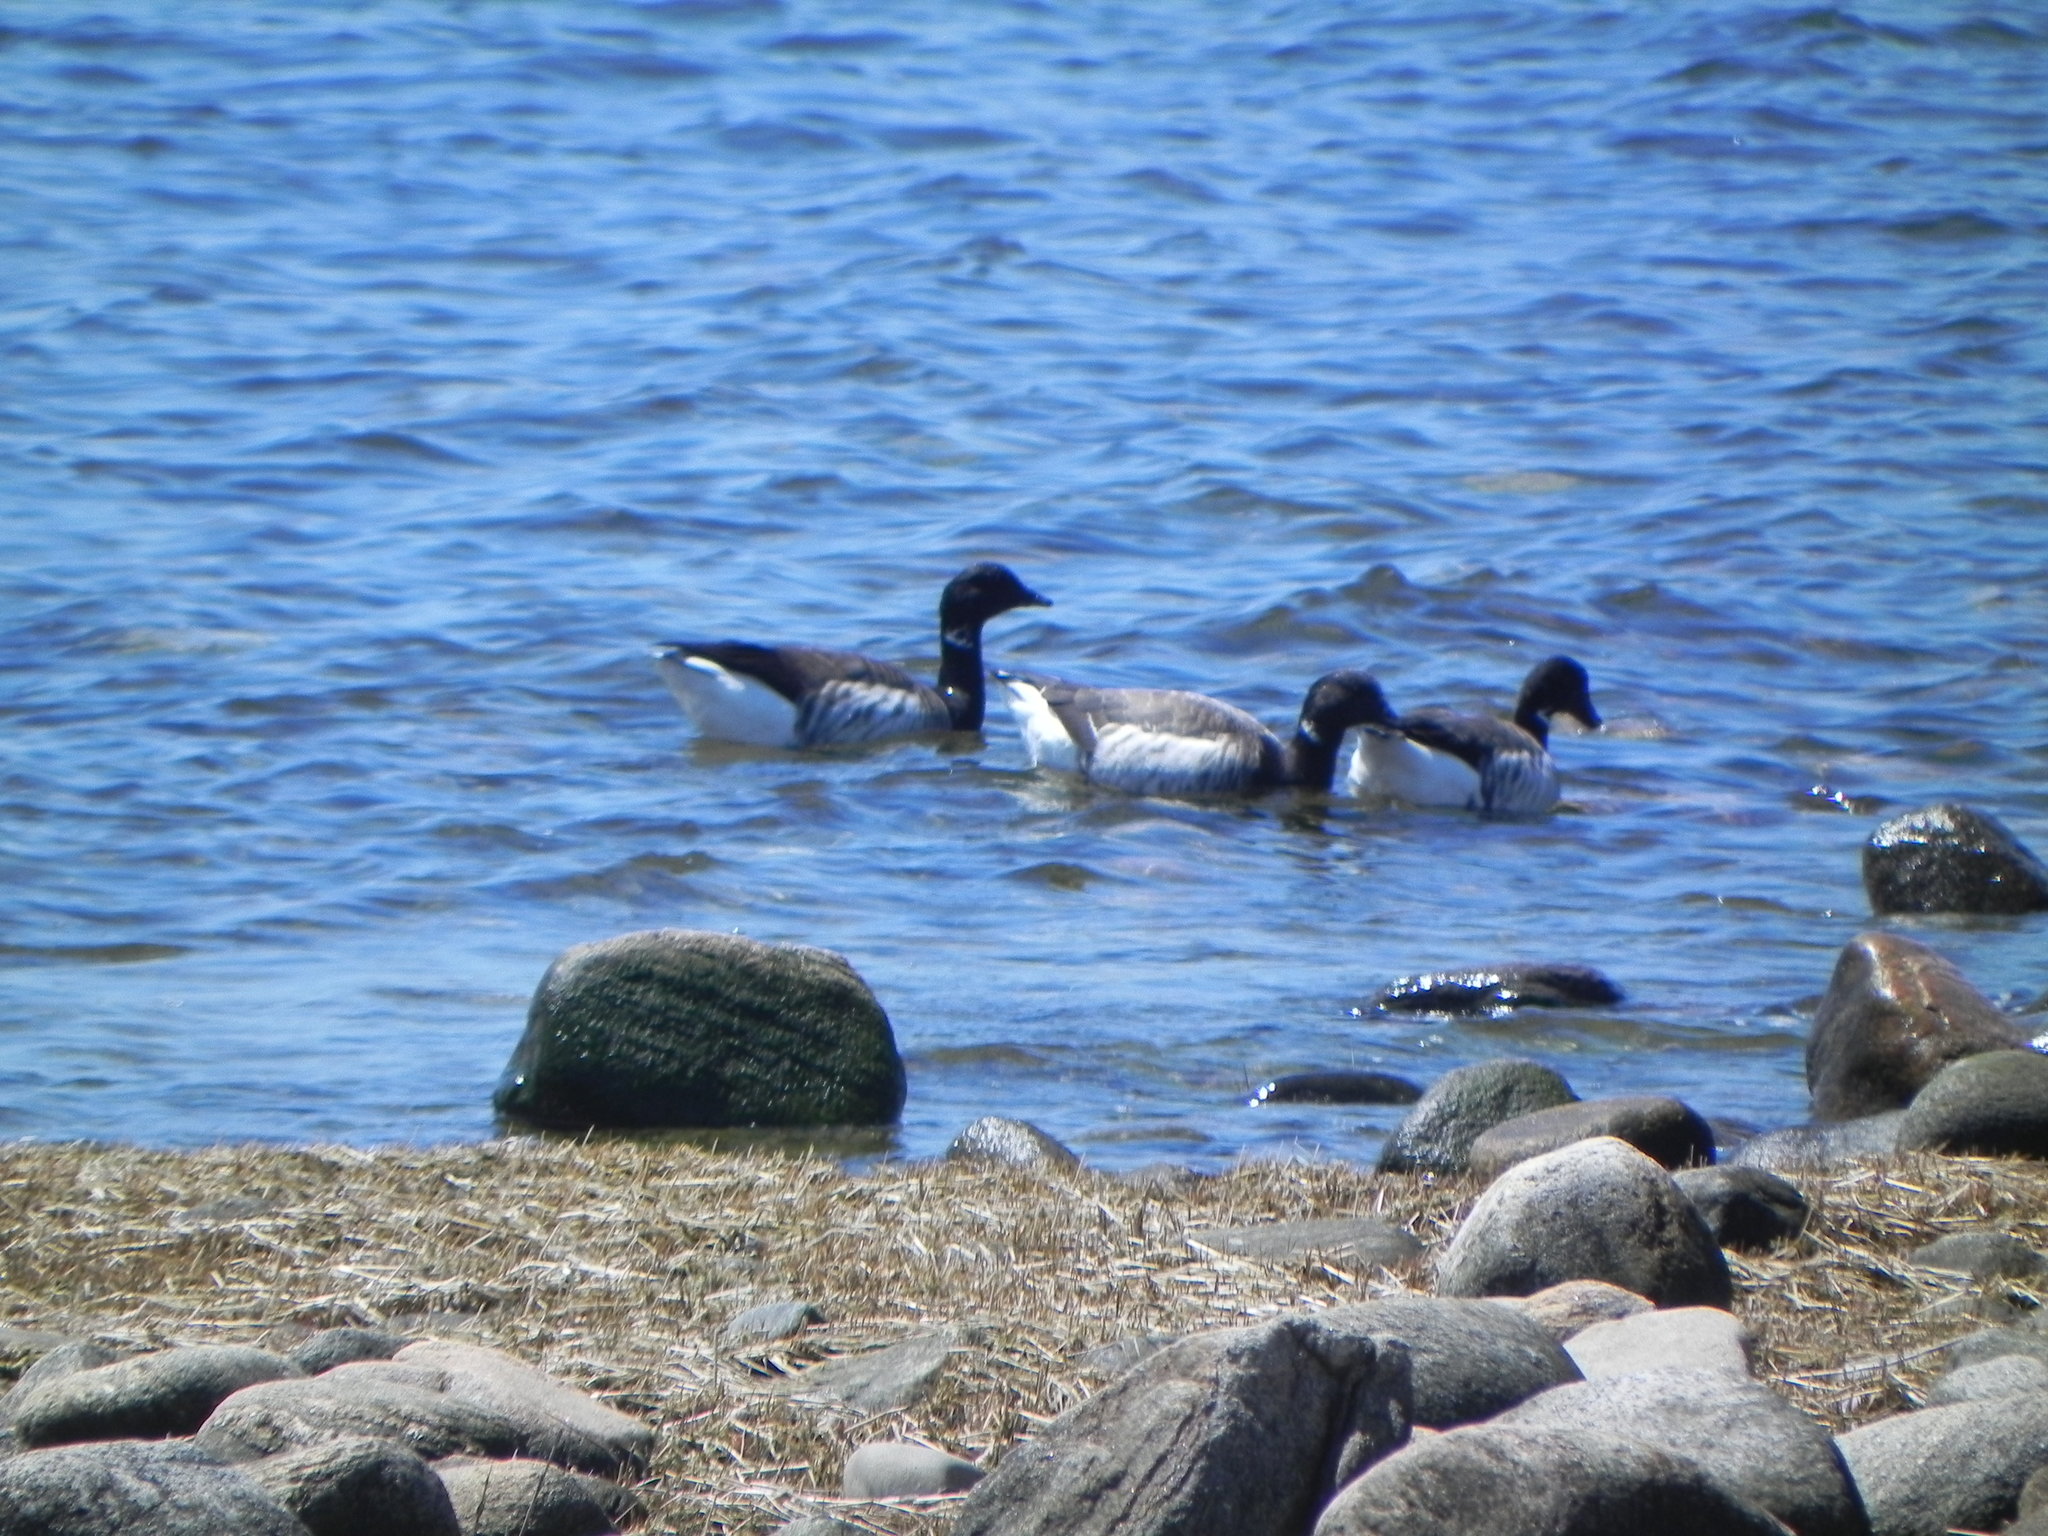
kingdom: Animalia
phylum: Chordata
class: Aves
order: Anseriformes
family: Anatidae
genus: Branta
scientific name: Branta bernicla
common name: Brant goose
